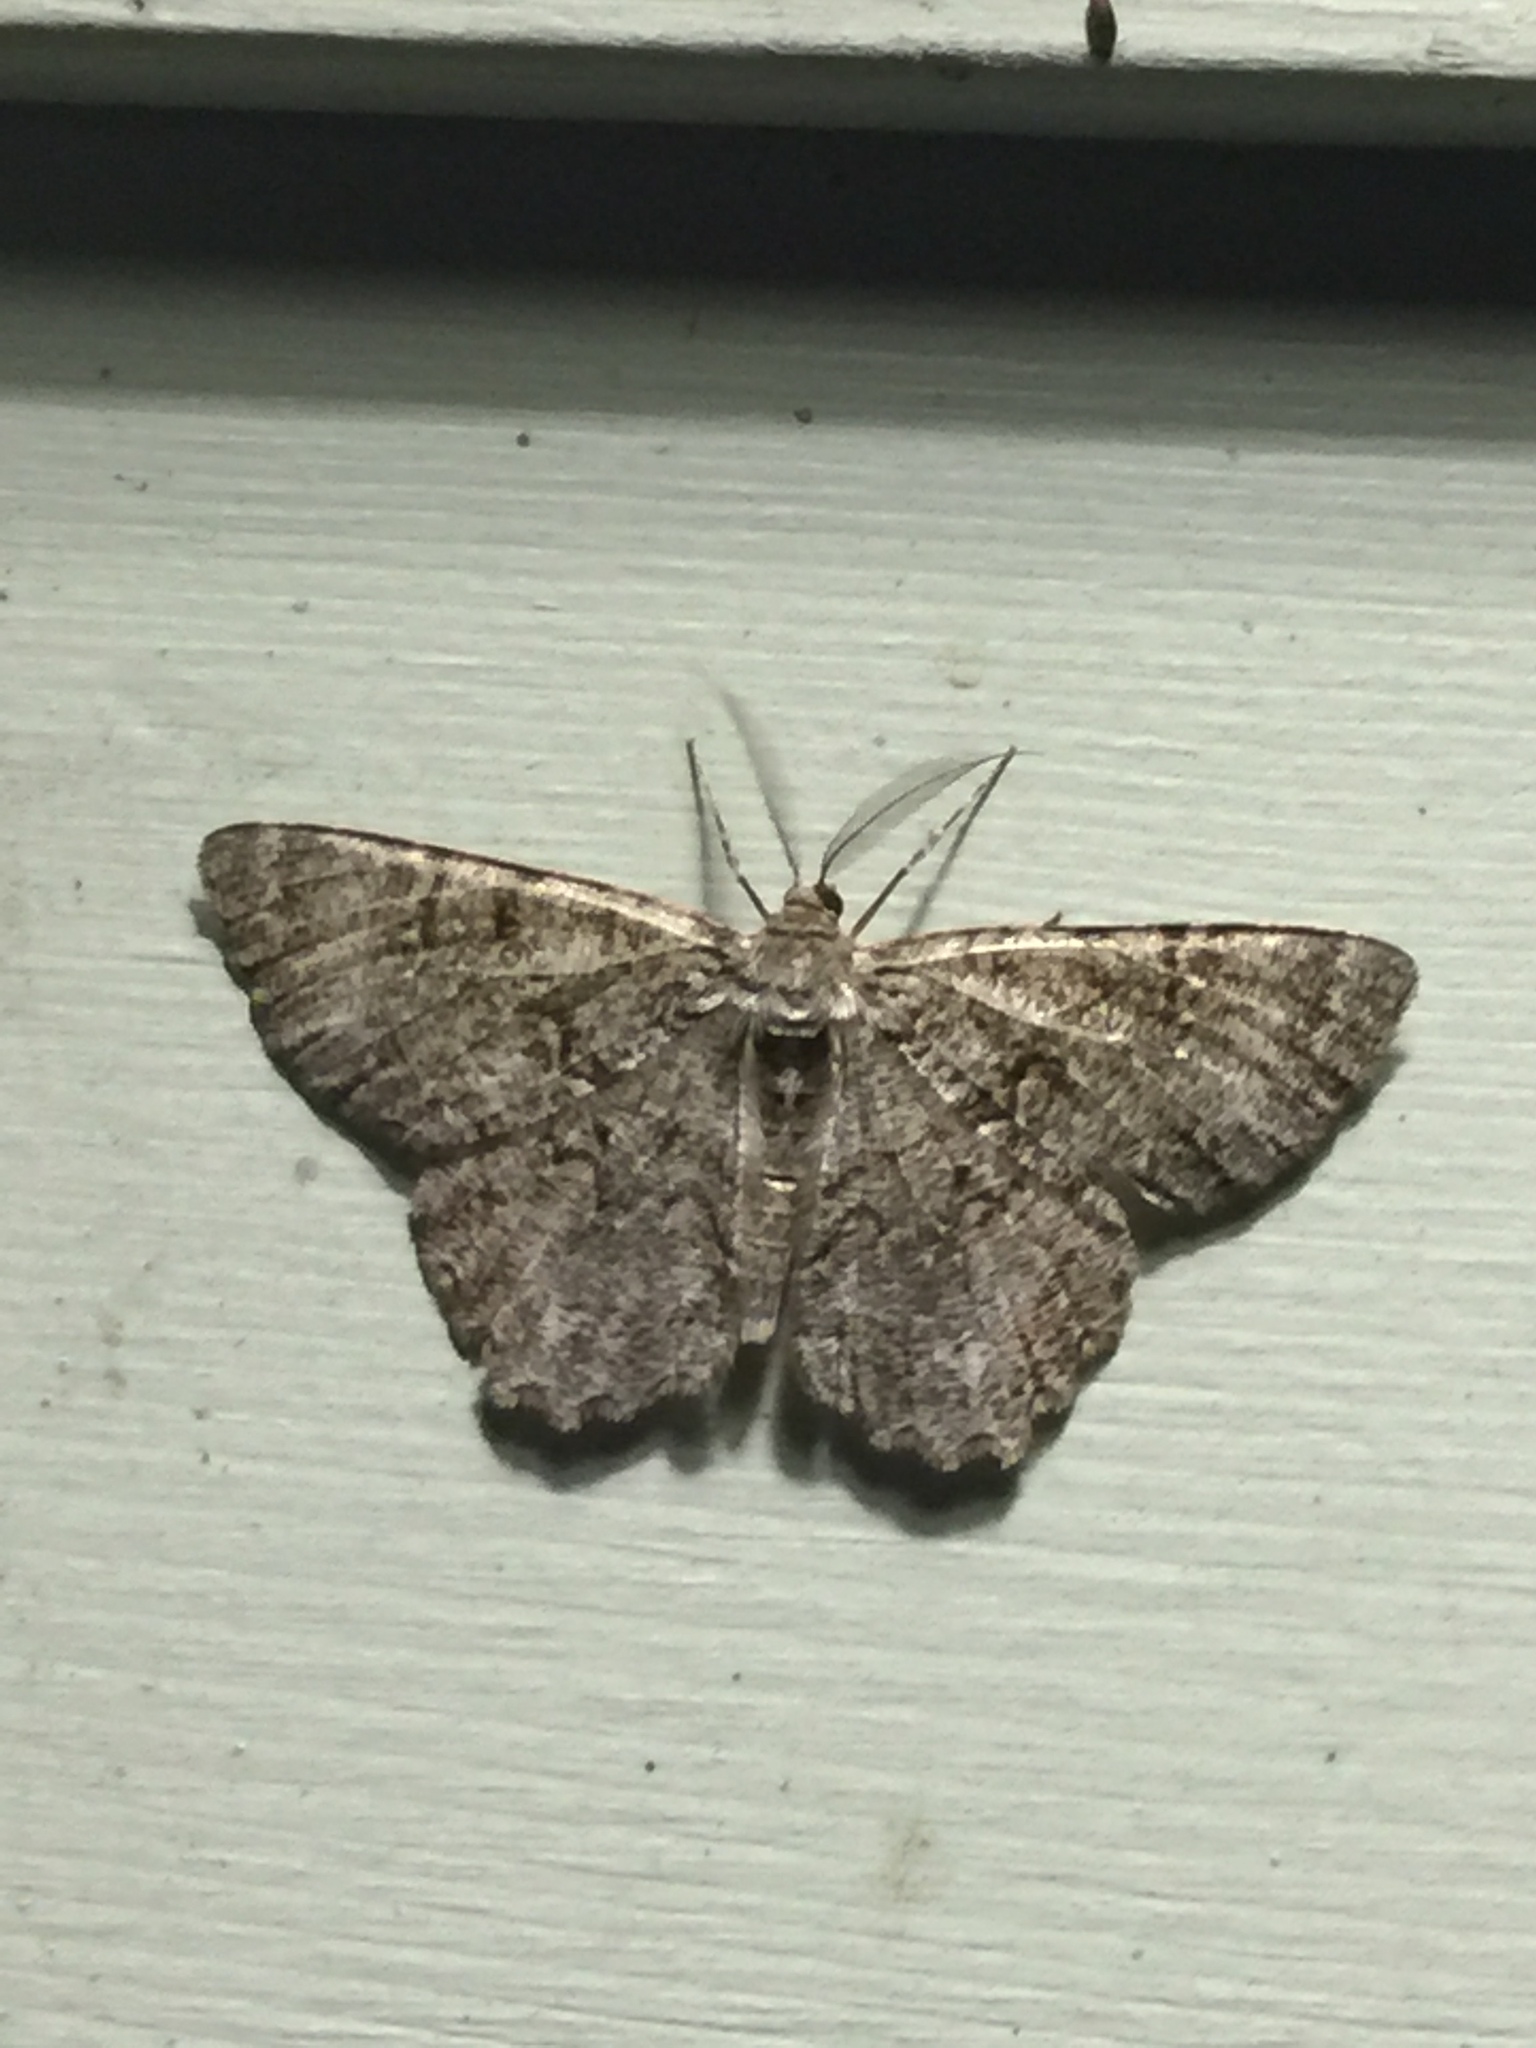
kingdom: Animalia
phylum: Arthropoda
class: Insecta
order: Lepidoptera
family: Geometridae
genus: Epimecis
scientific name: Epimecis hortaria
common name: Tulip-tree beauty
